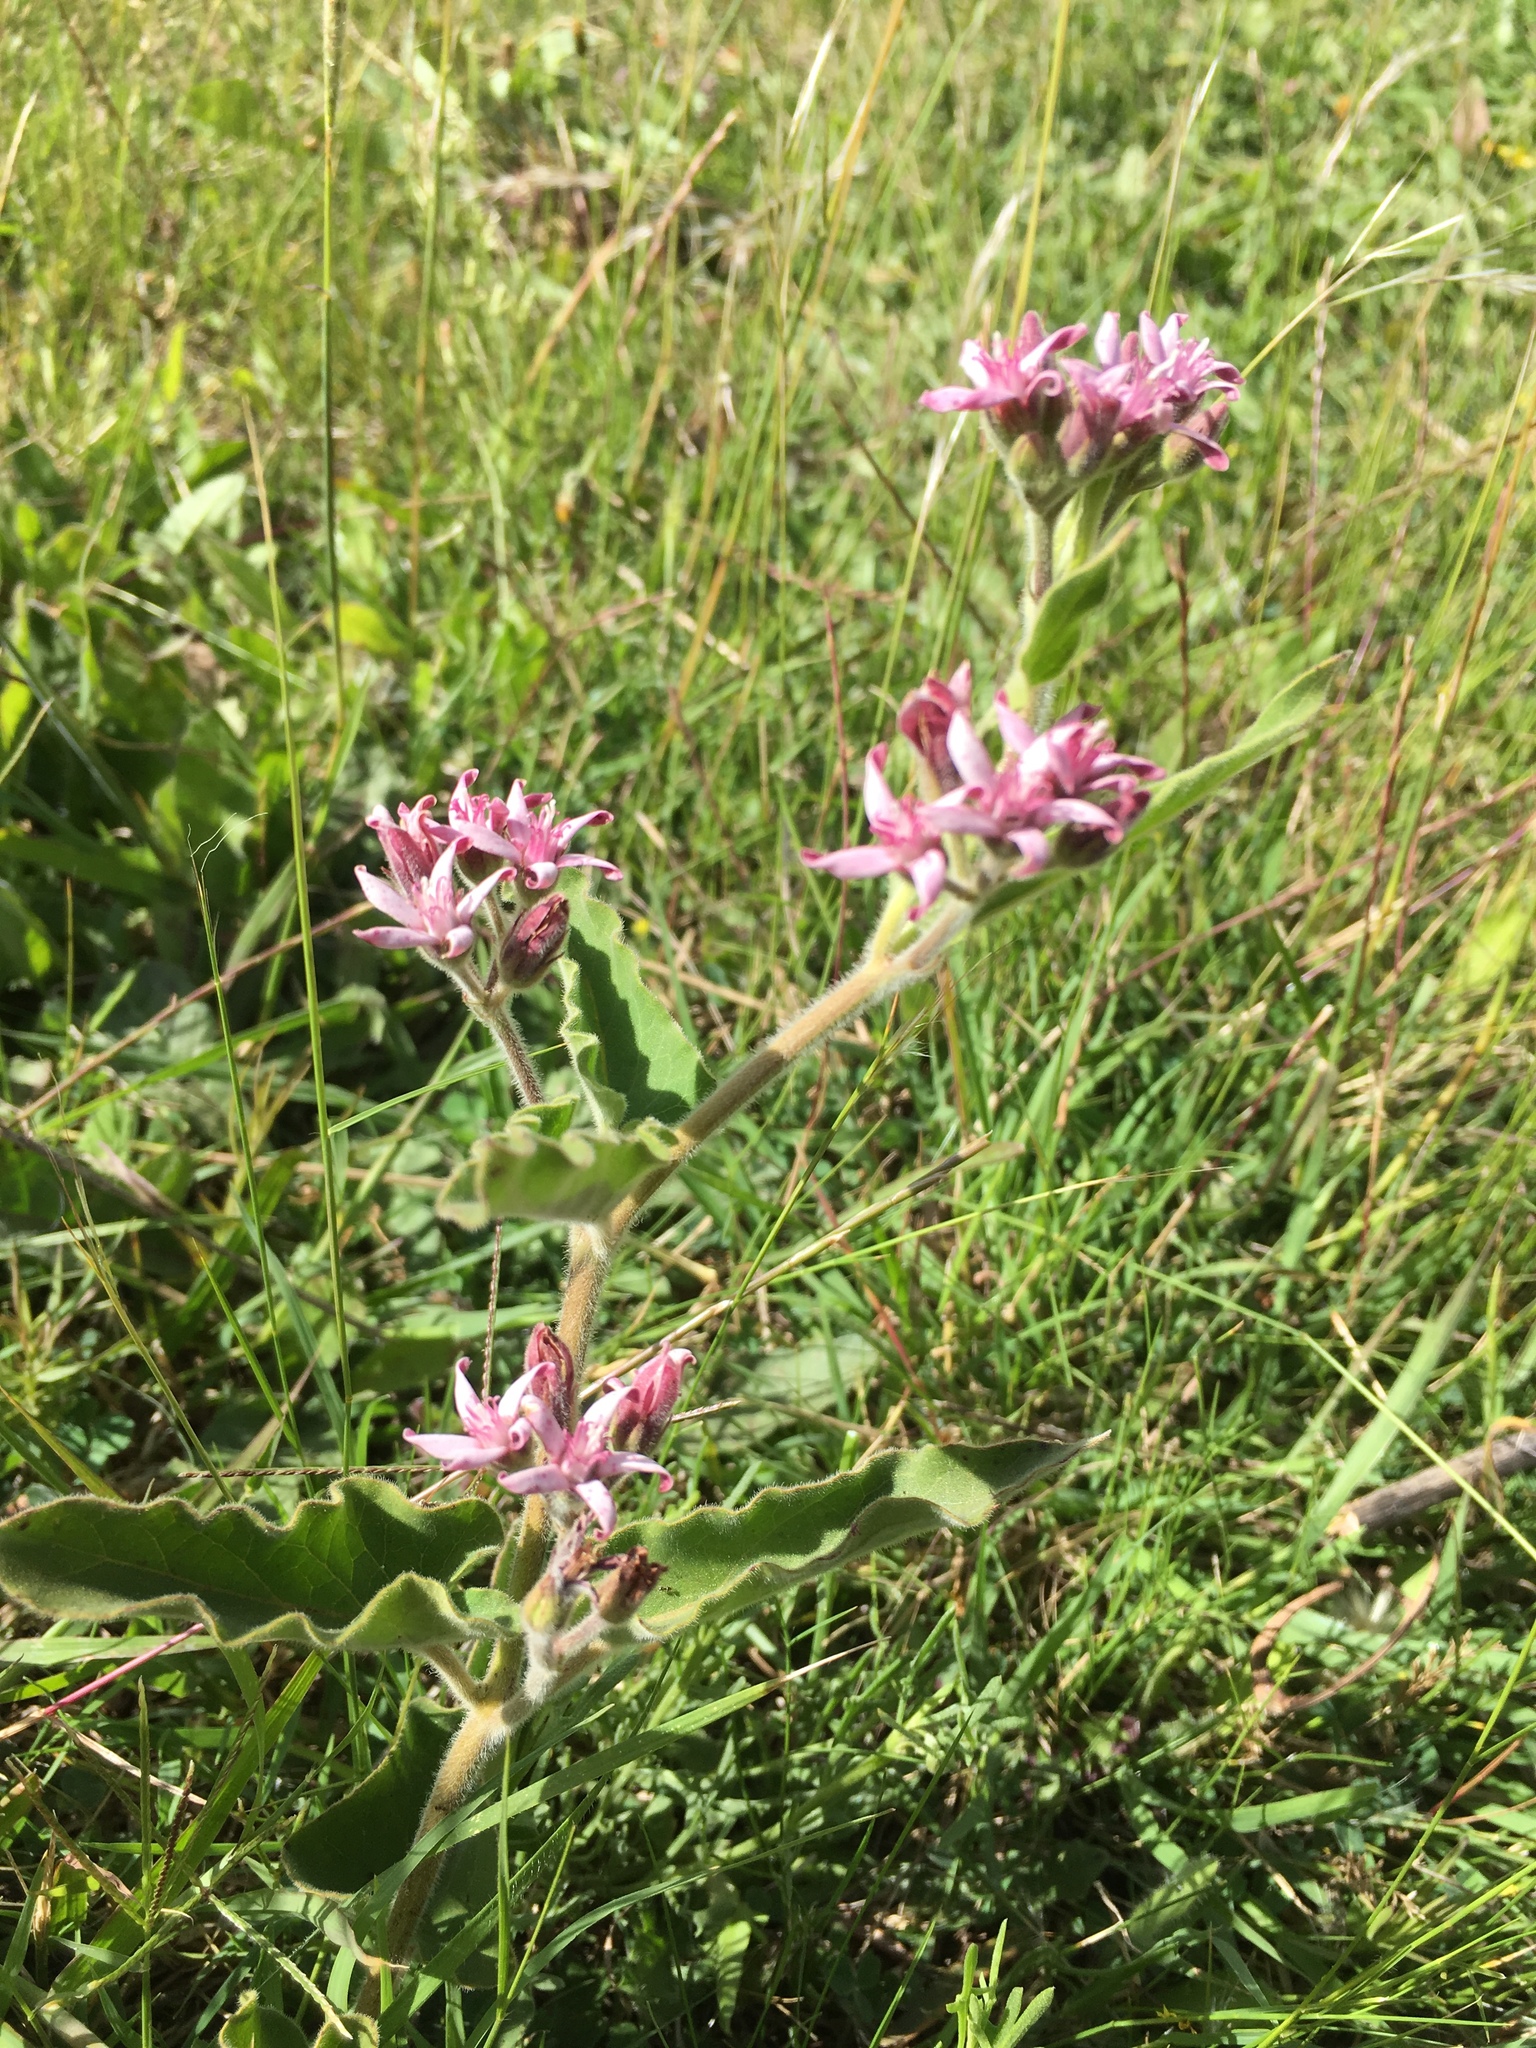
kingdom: Plantae
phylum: Tracheophyta
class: Magnoliopsida
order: Gentianales
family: Apocynaceae
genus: Oxypetalum
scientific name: Oxypetalum solanoides
